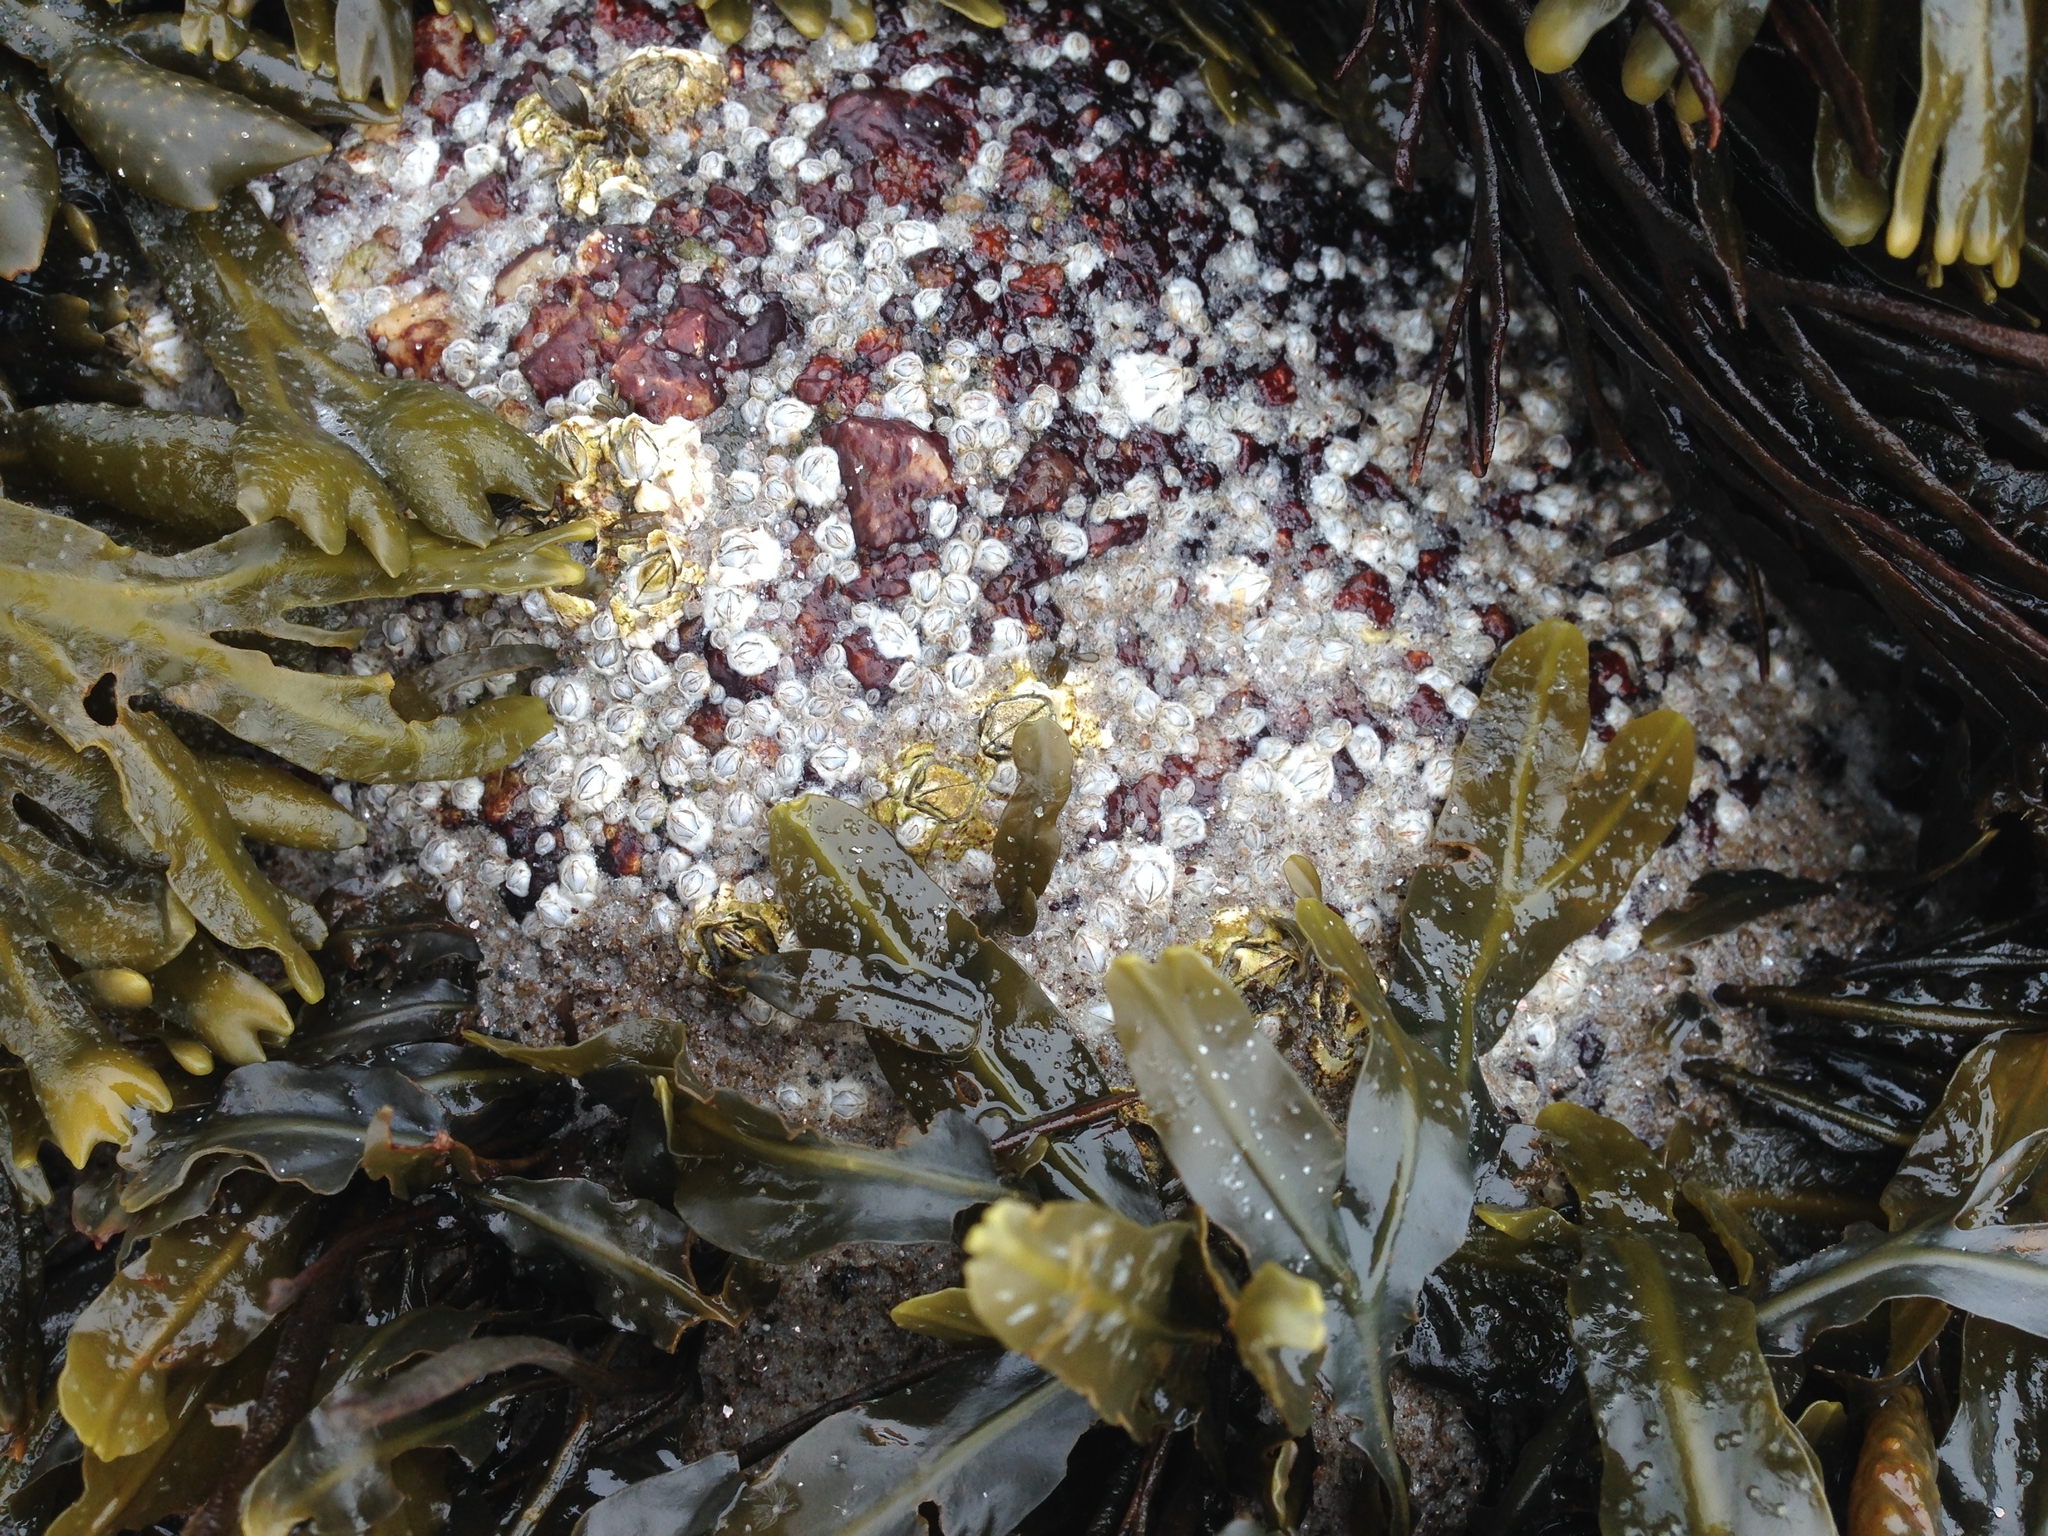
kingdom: Animalia
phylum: Arthropoda
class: Maxillopoda
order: Sessilia
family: Archaeobalanidae
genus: Semibalanus
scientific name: Semibalanus balanoides
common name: Acorn barnacle
